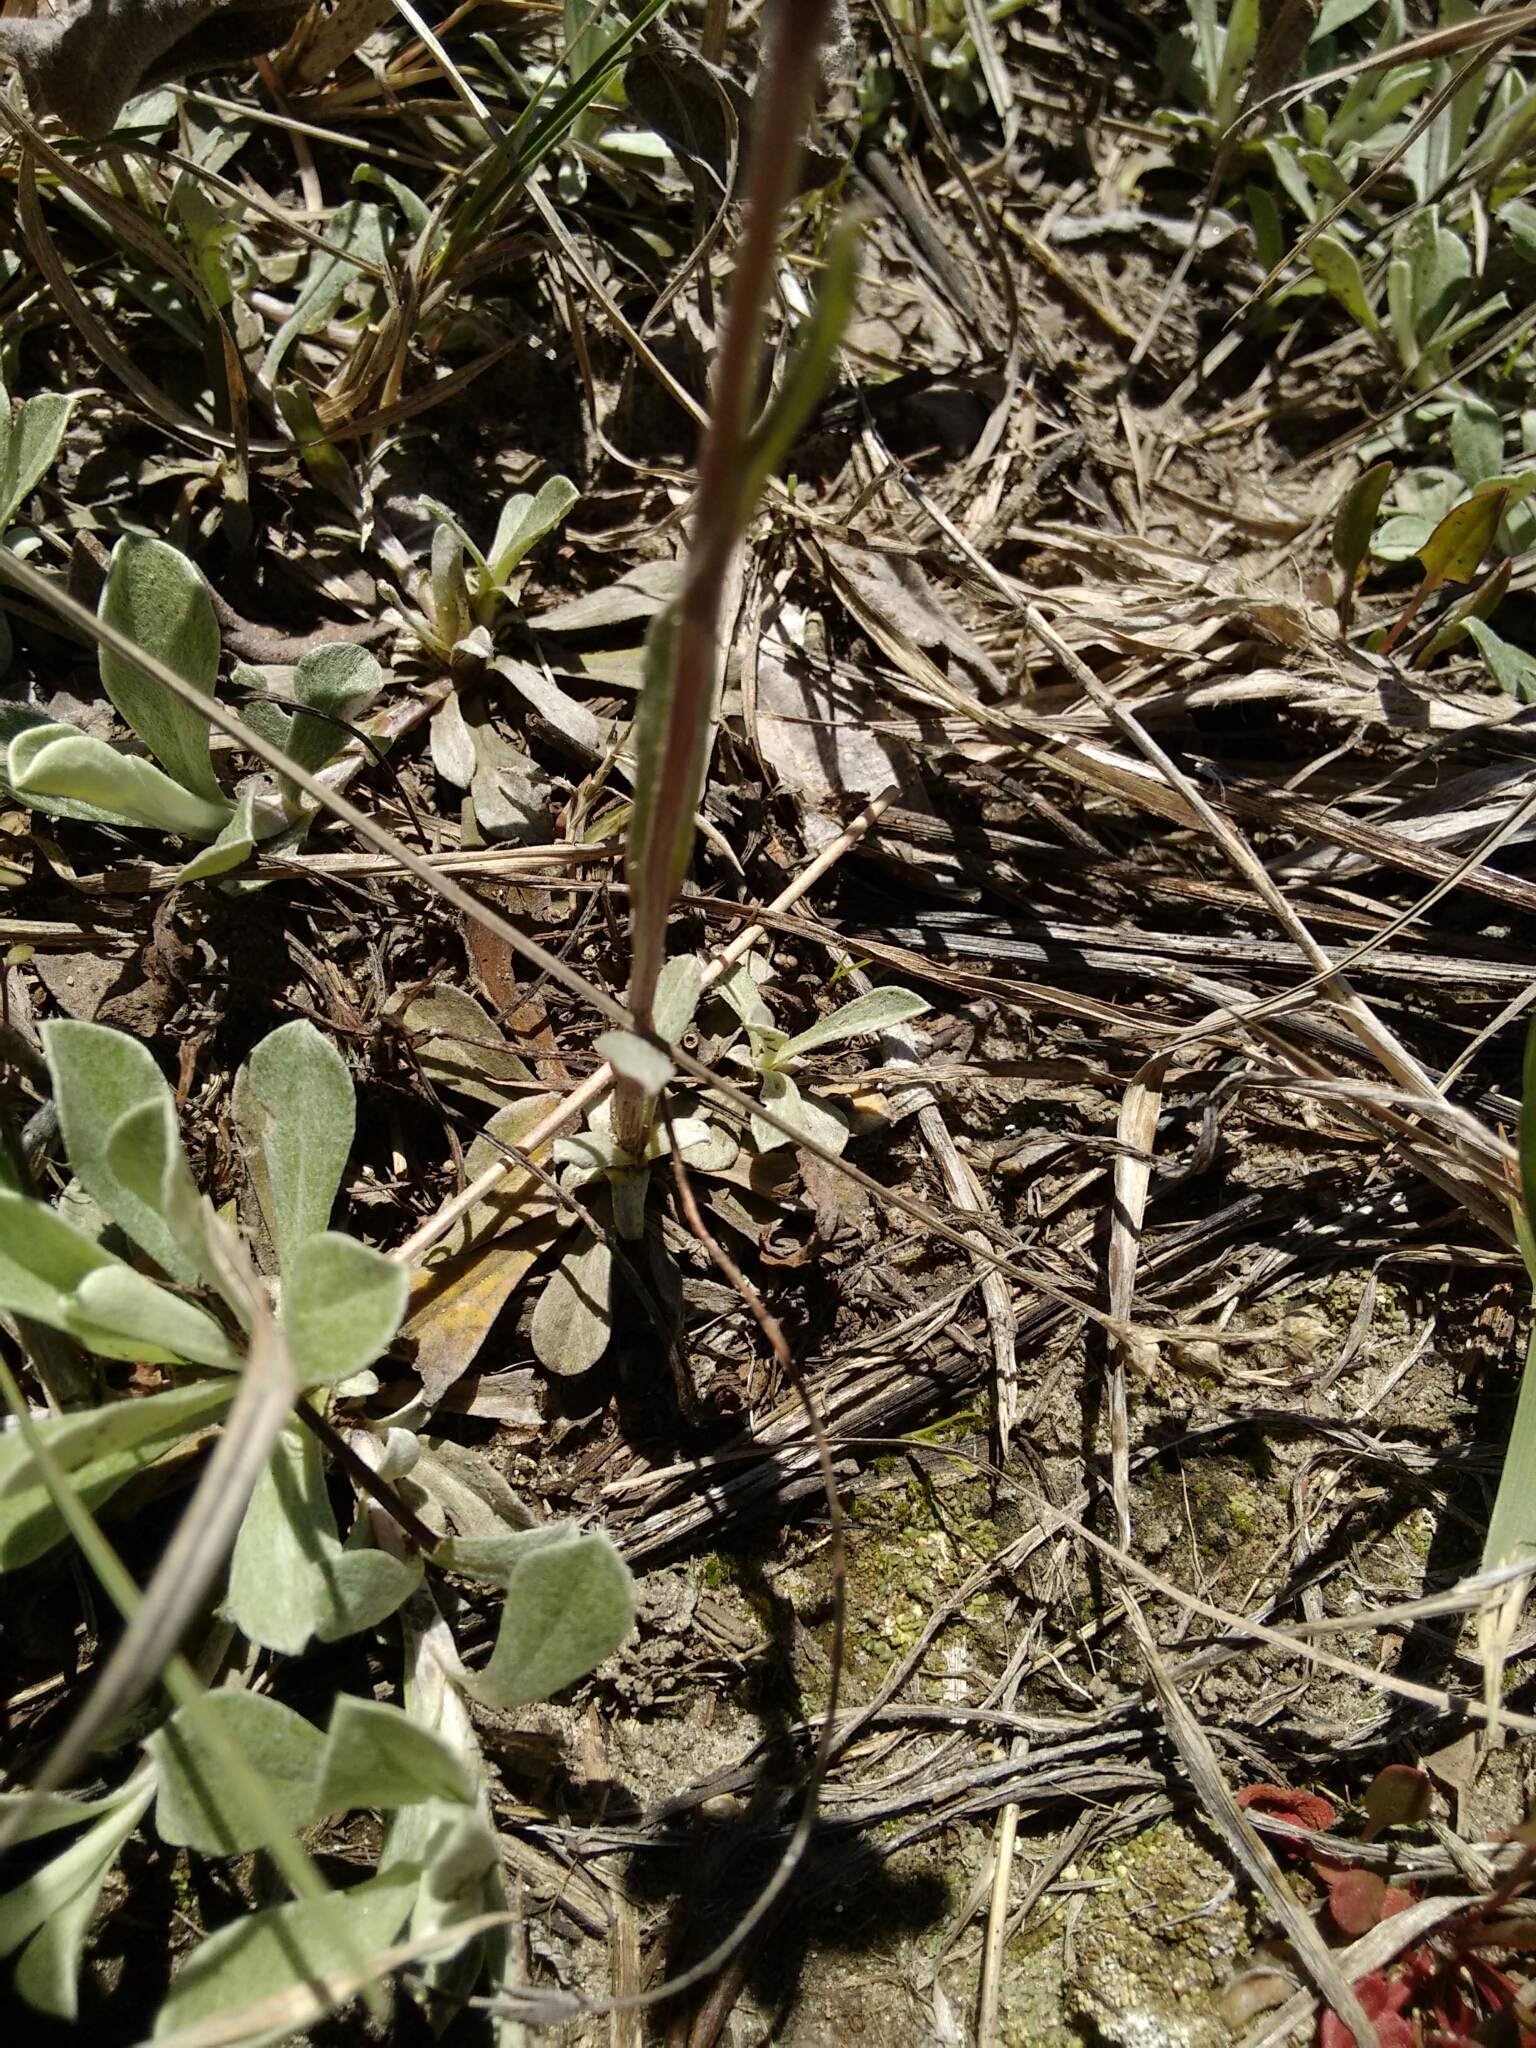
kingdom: Plantae
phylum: Tracheophyta
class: Magnoliopsida
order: Asterales
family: Asteraceae
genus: Antennaria
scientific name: Antennaria parvifolia
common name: Nuttall's pussytoes
